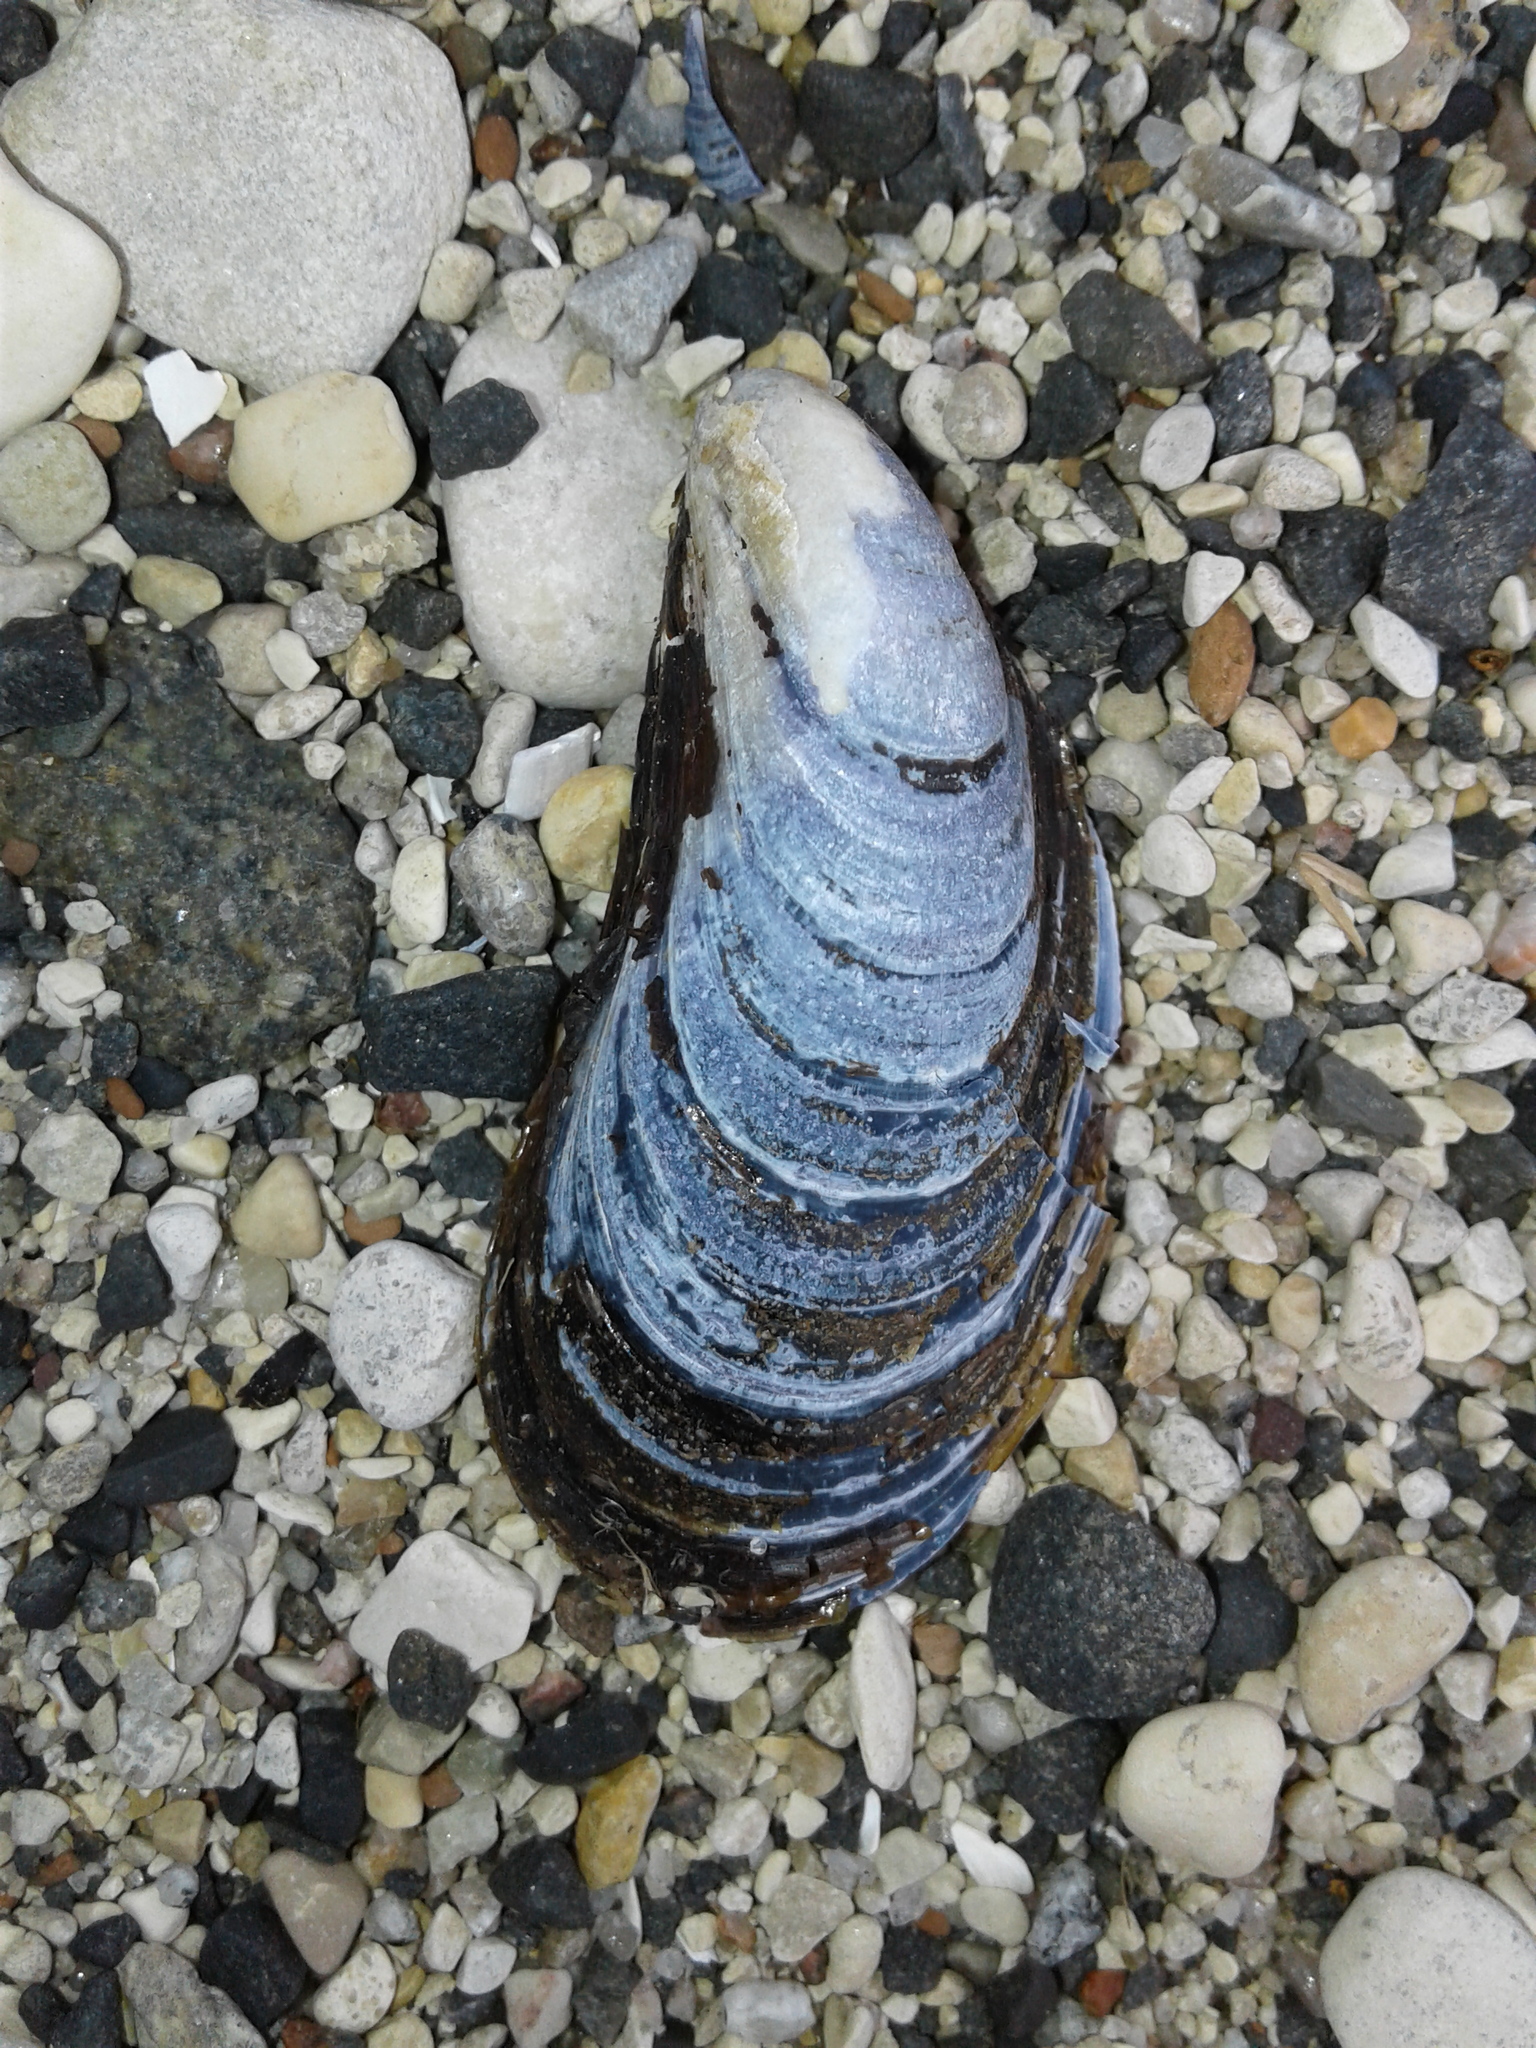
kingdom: Animalia
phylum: Mollusca
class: Bivalvia
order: Mytilida
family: Mytilidae
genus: Mytilus
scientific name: Mytilus edulis
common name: Blue mussel
